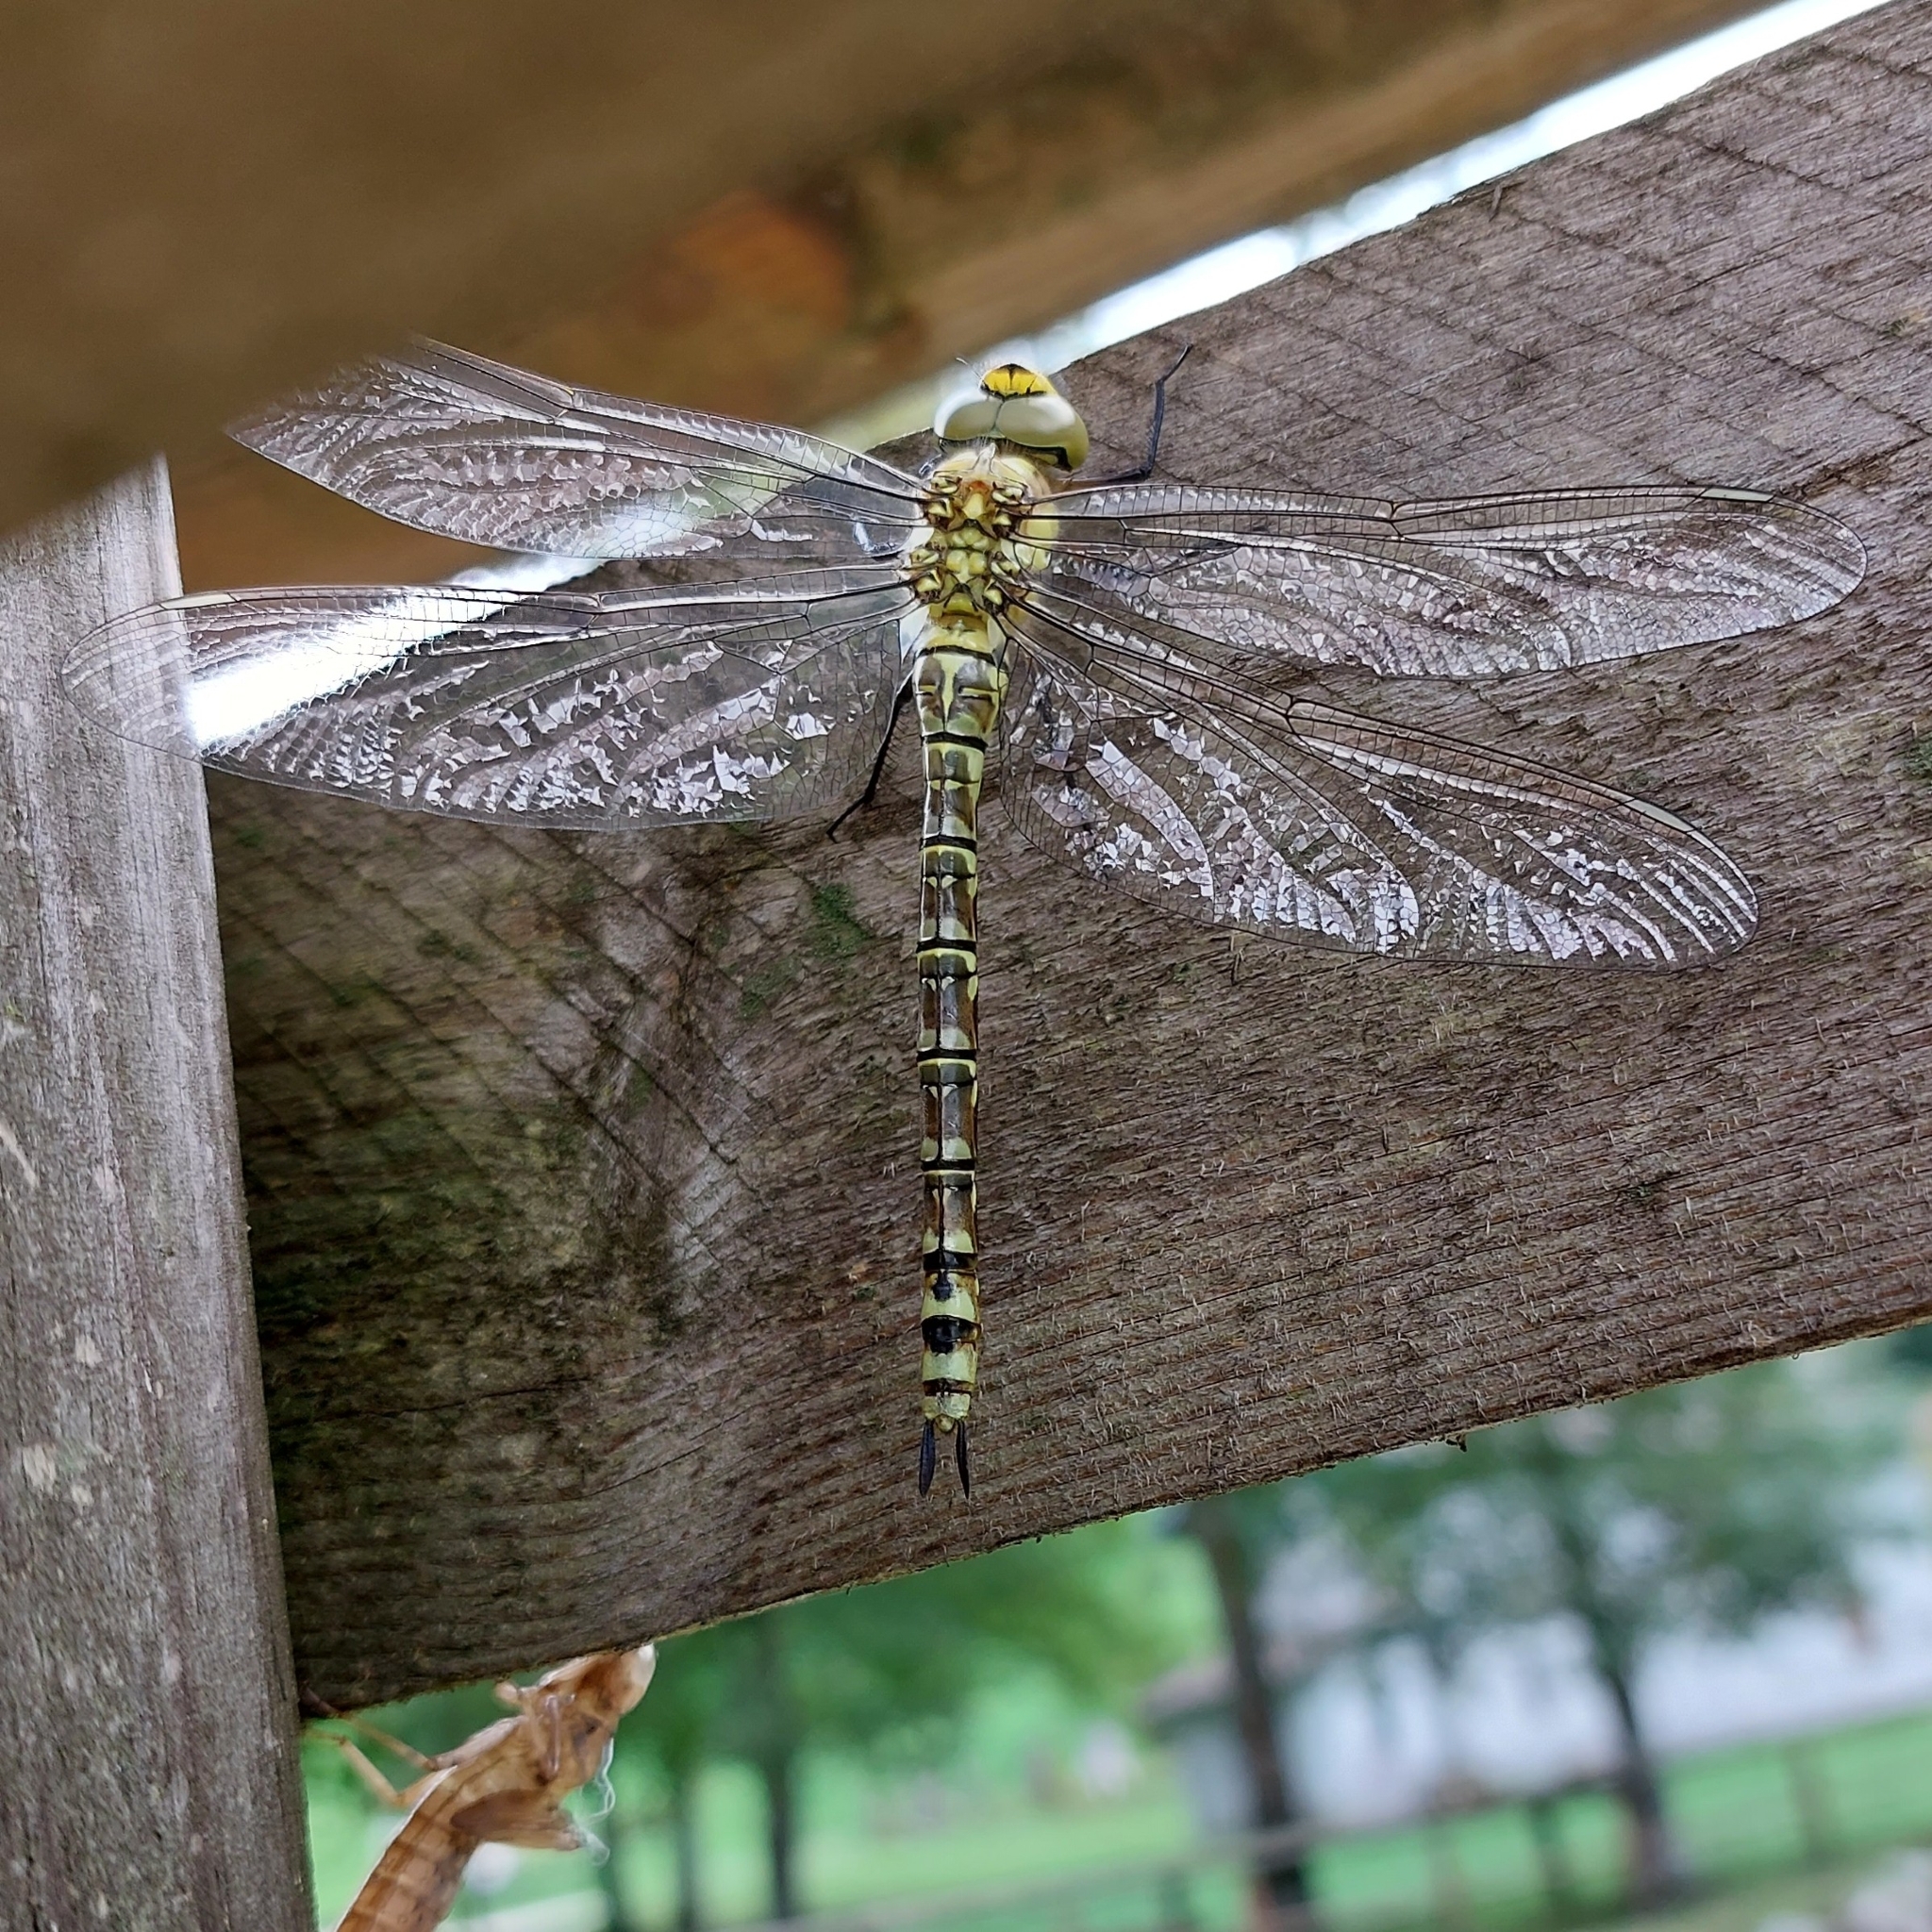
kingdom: Animalia
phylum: Arthropoda
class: Insecta
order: Odonata
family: Aeshnidae
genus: Aeshna
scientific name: Aeshna cyanea
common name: Southern hawker
